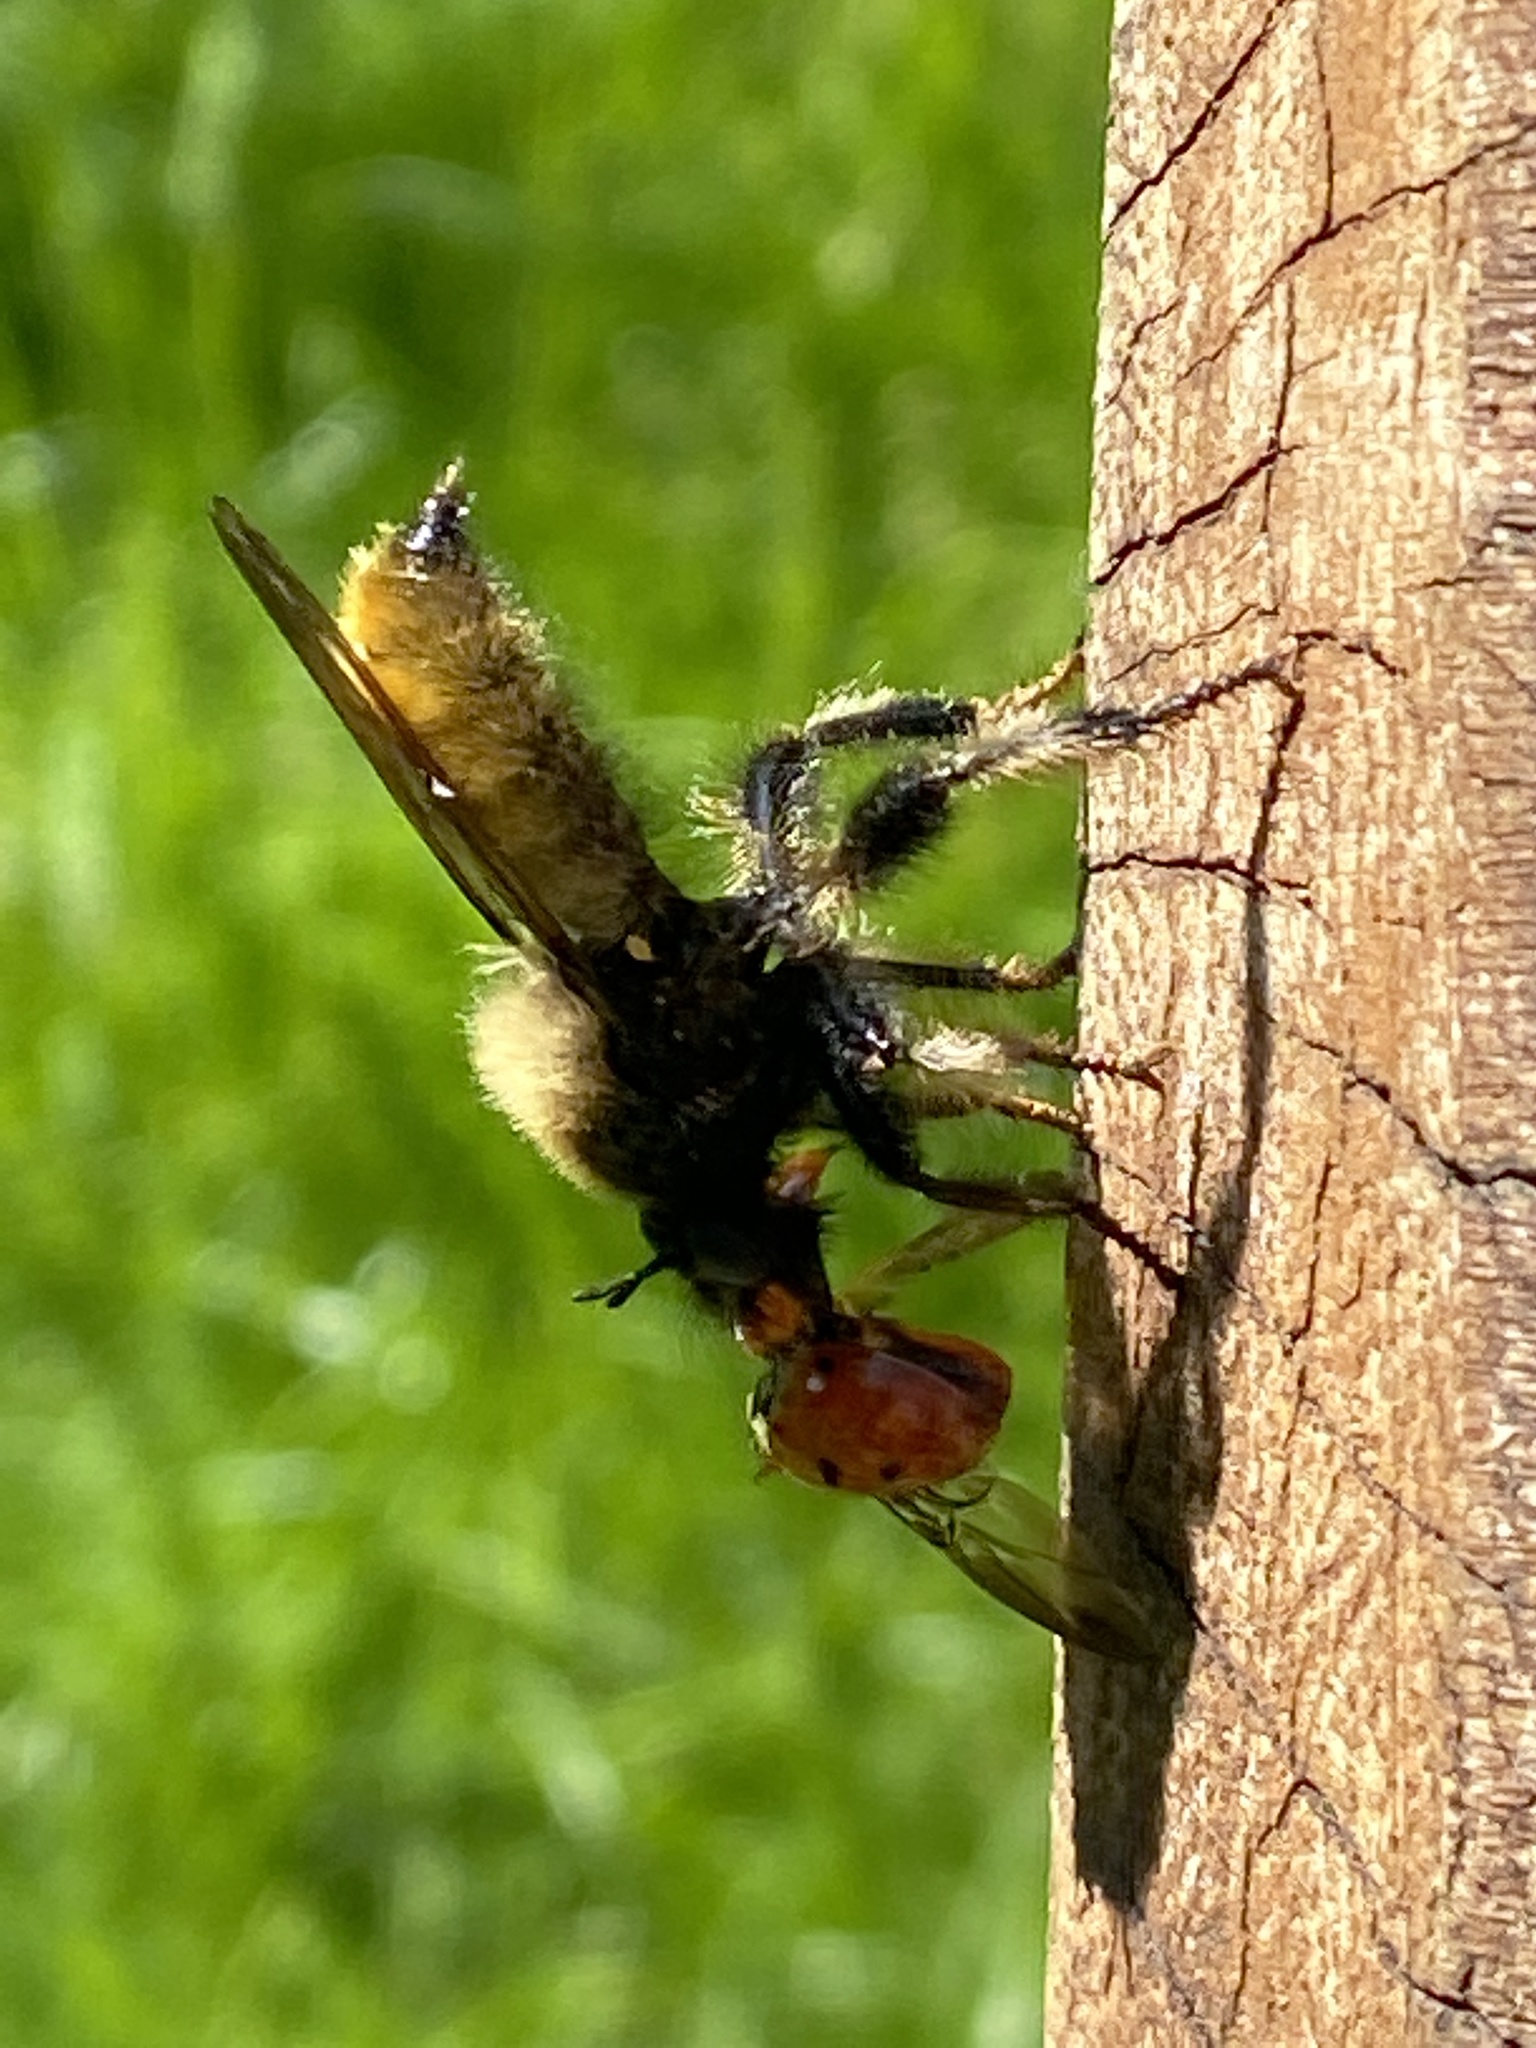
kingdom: Animalia
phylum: Arthropoda
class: Insecta
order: Diptera
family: Asilidae
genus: Laphria
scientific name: Laphria flava
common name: Bumblebee robberfly
